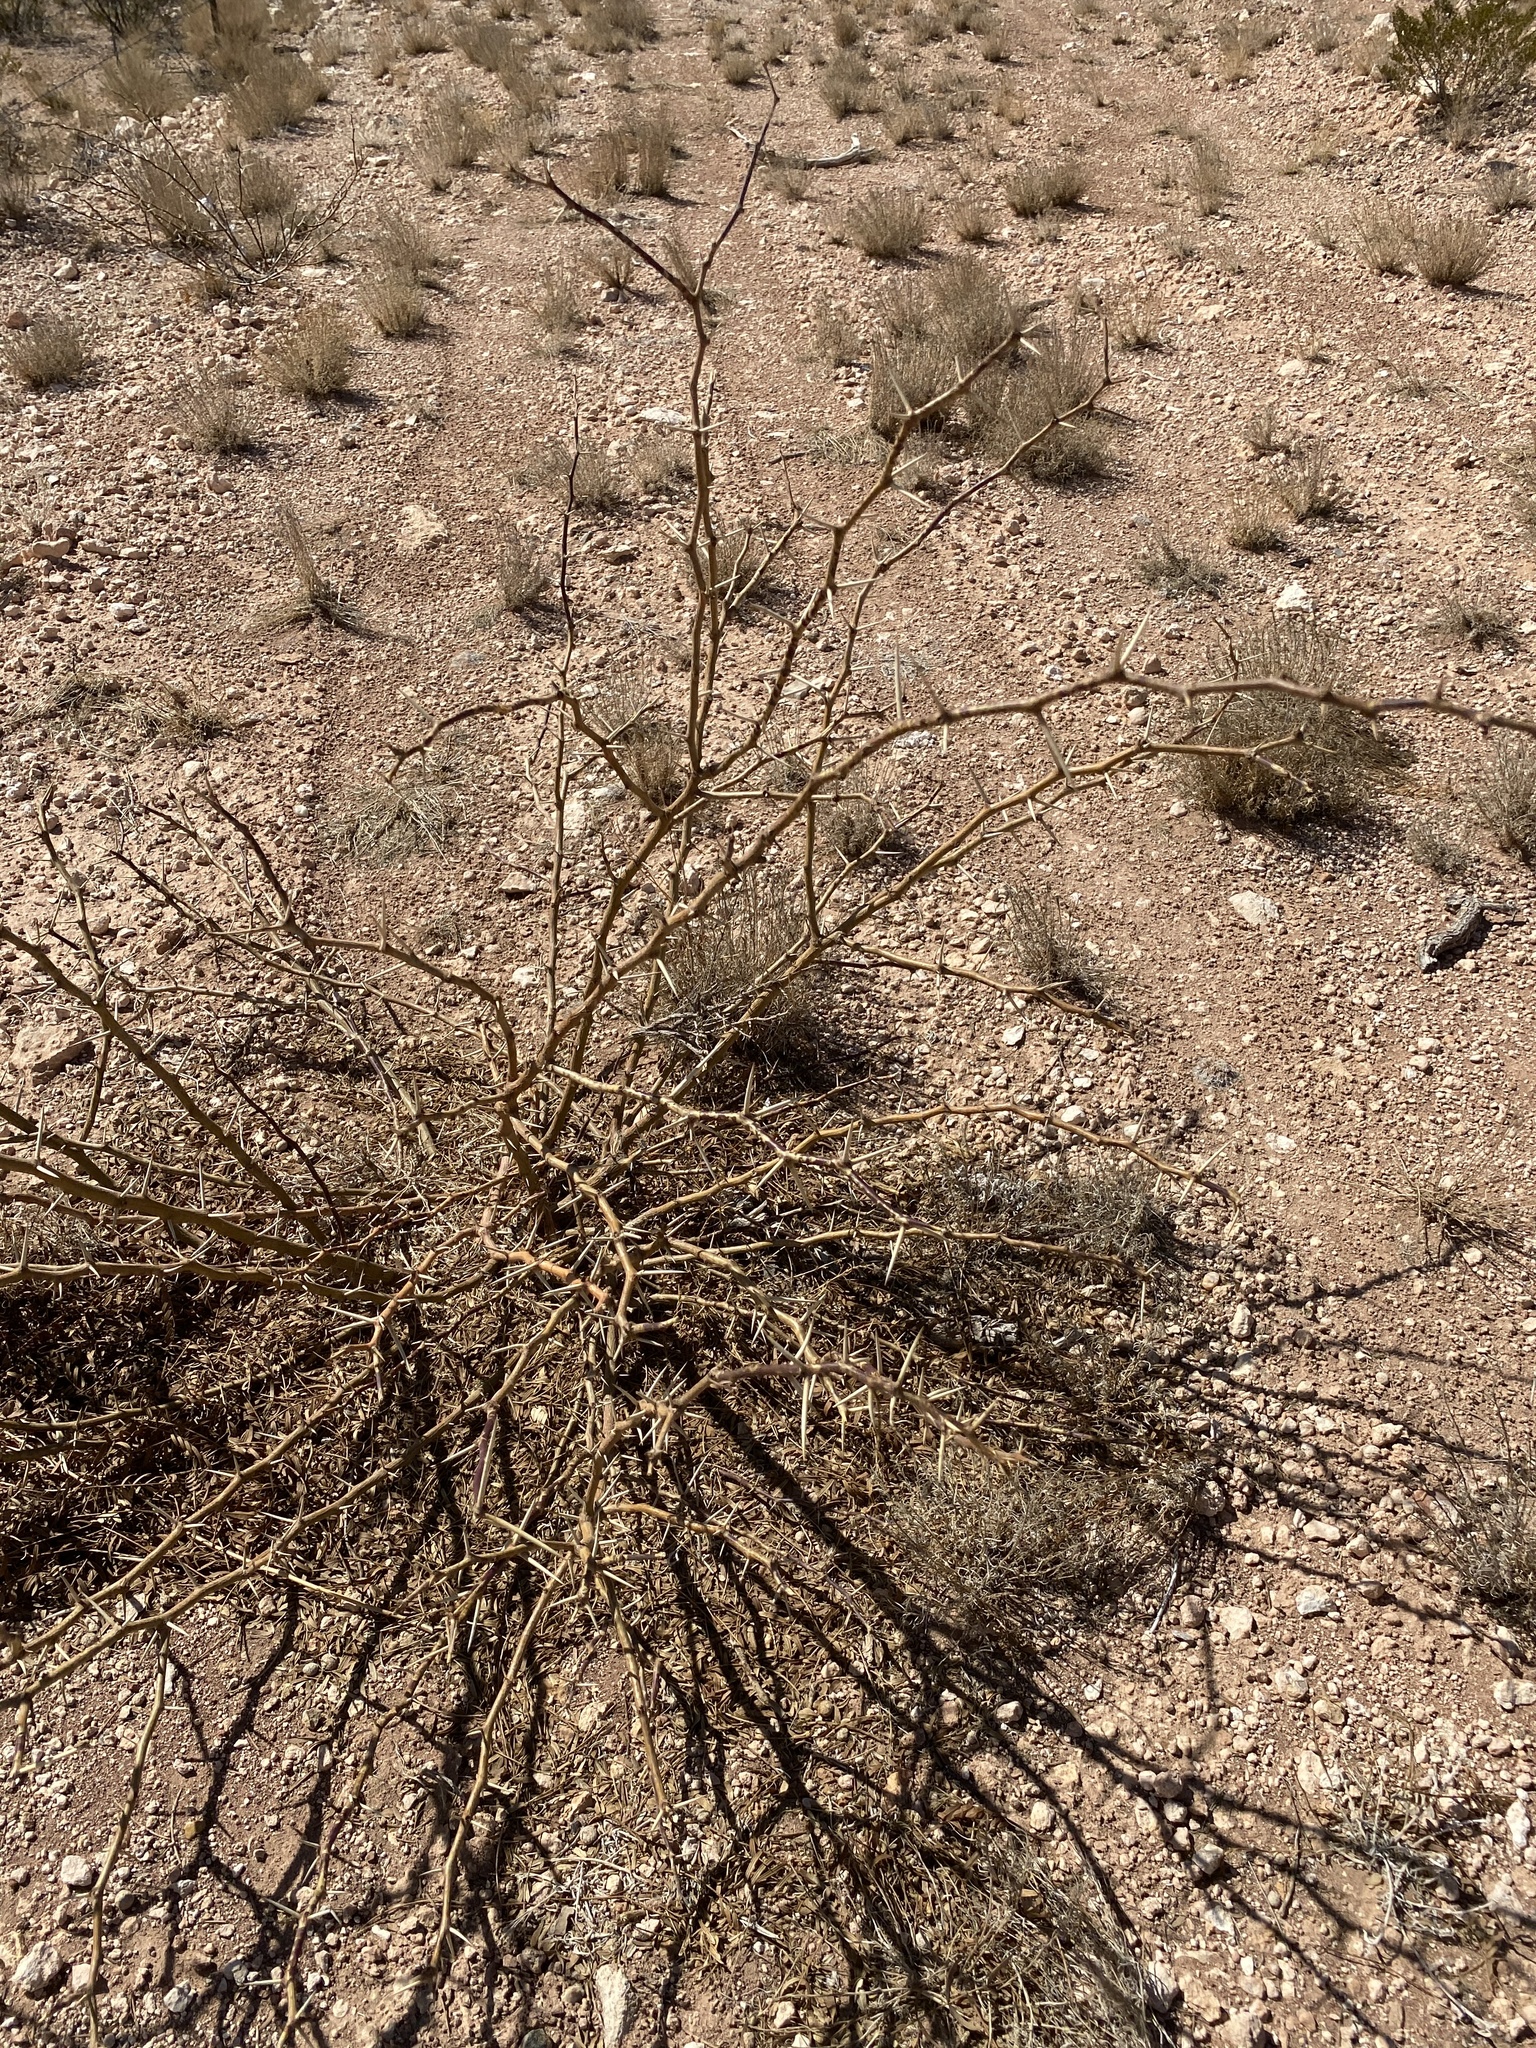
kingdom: Plantae
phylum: Tracheophyta
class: Magnoliopsida
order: Fabales
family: Fabaceae
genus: Prosopis
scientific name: Prosopis glandulosa
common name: Honey mesquite
